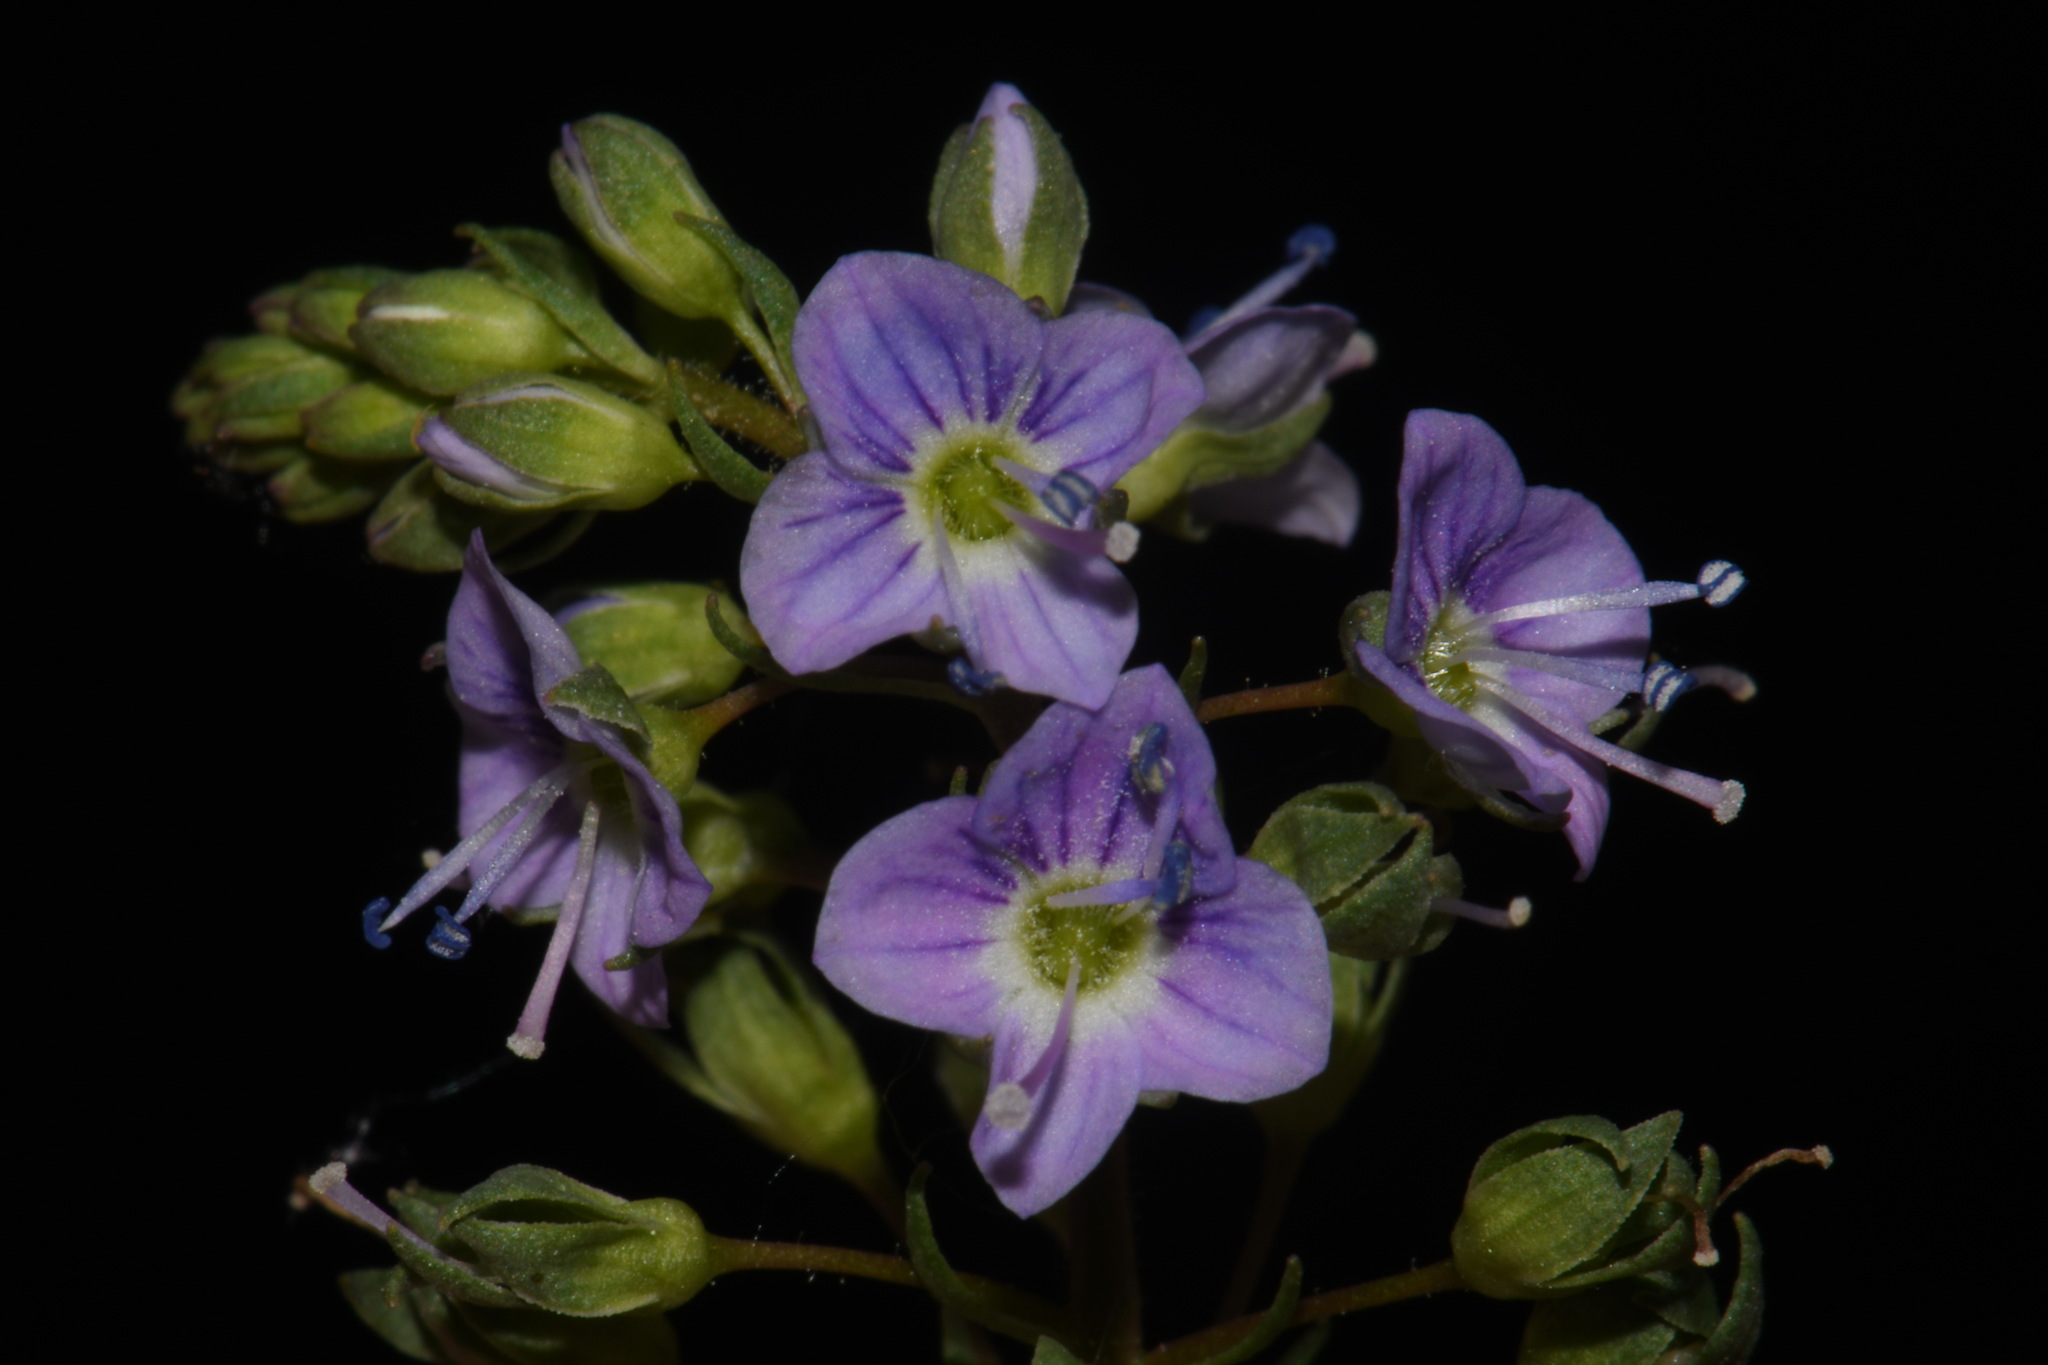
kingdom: Plantae
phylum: Tracheophyta
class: Magnoliopsida
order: Lamiales
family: Plantaginaceae
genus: Veronica
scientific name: Veronica anagallis-aquatica
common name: Water speedwell
